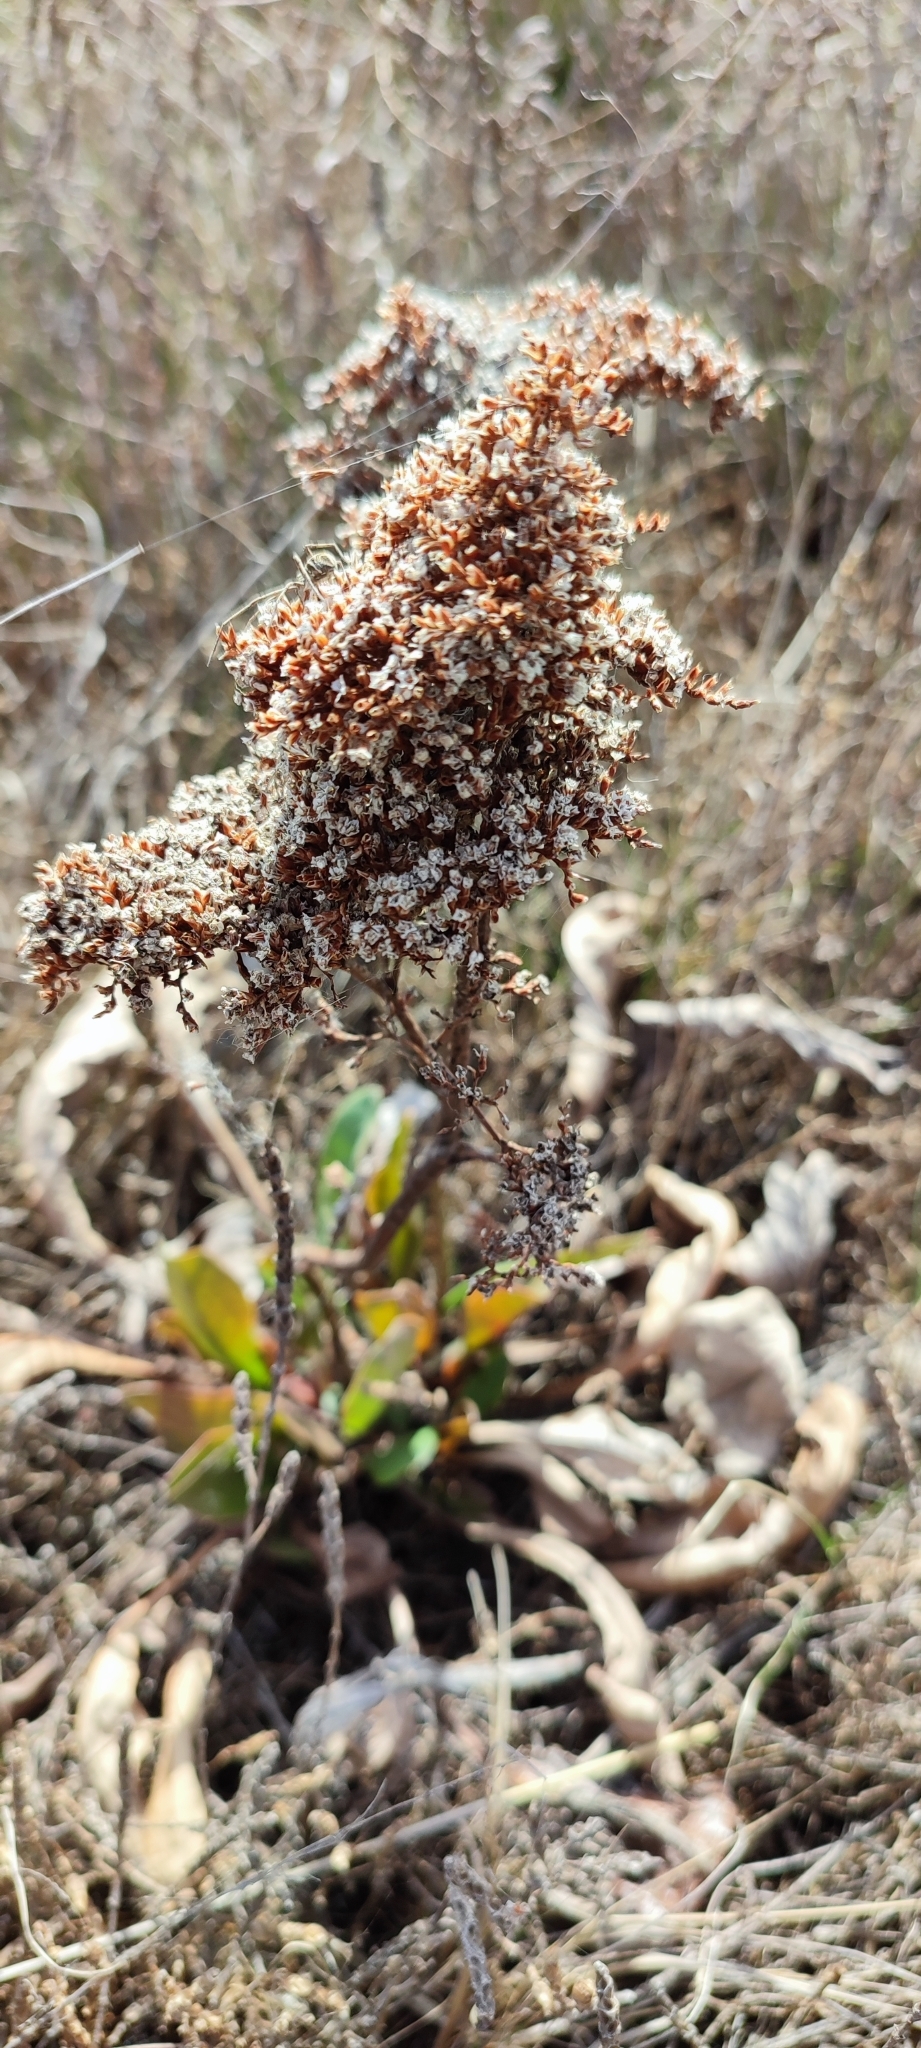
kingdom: Plantae
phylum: Tracheophyta
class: Magnoliopsida
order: Caryophyllales
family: Plumbaginaceae
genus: Limonium
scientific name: Limonium gmelini
